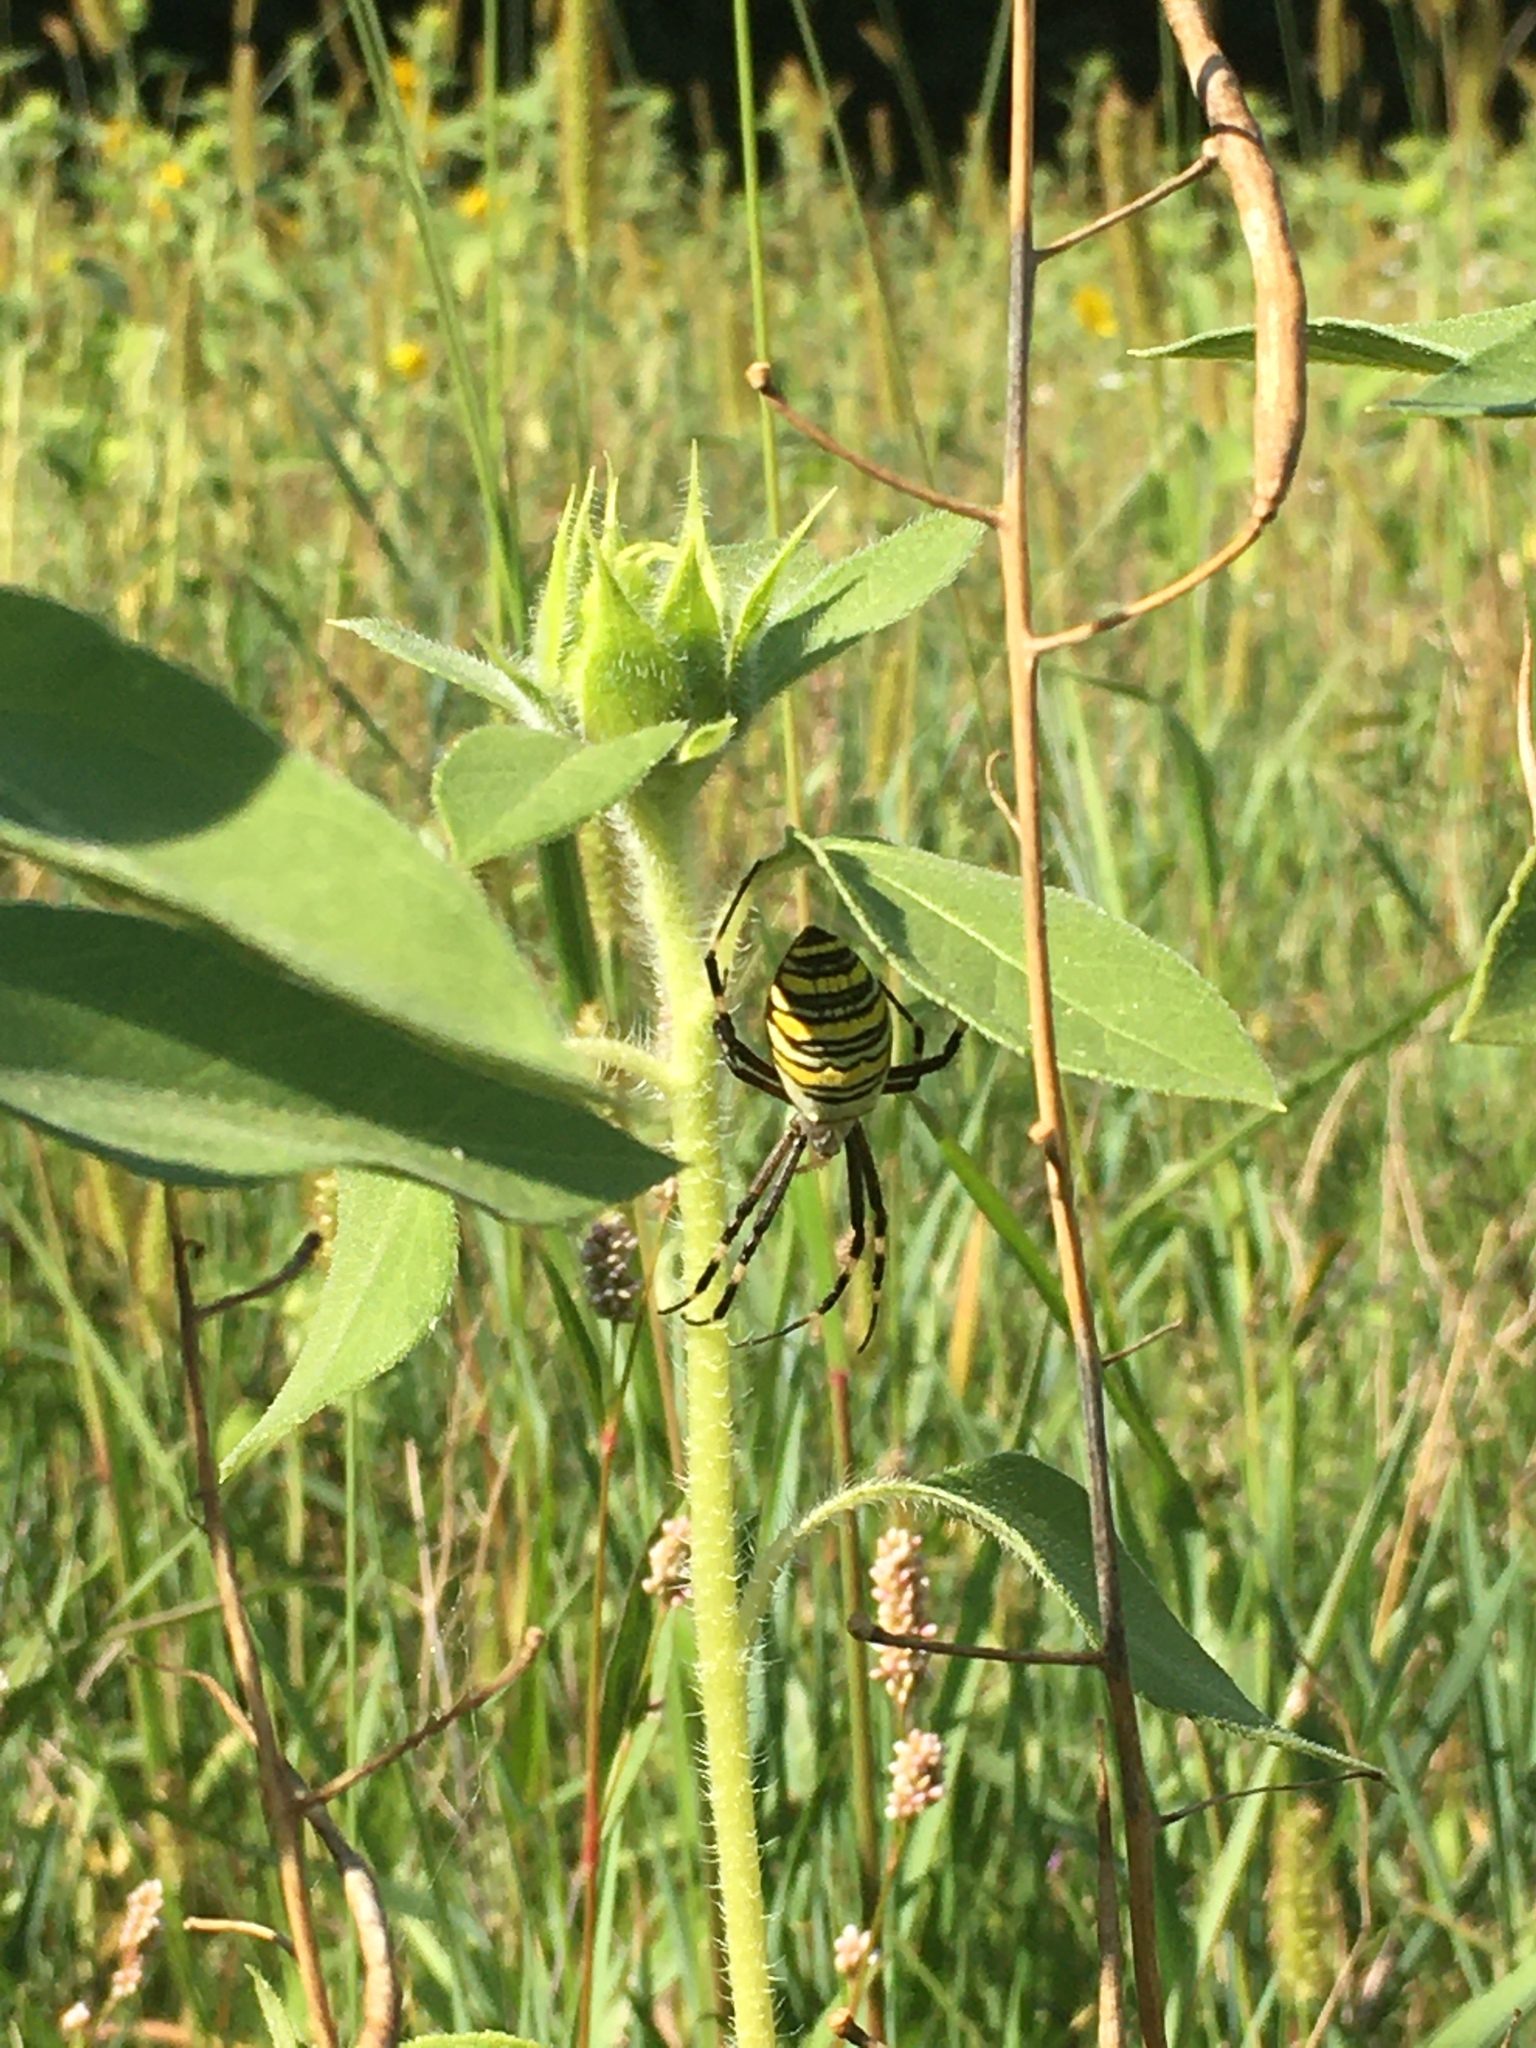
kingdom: Animalia
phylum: Arthropoda
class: Arachnida
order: Araneae
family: Araneidae
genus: Argiope
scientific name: Argiope bruennichi
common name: Wasp spider
